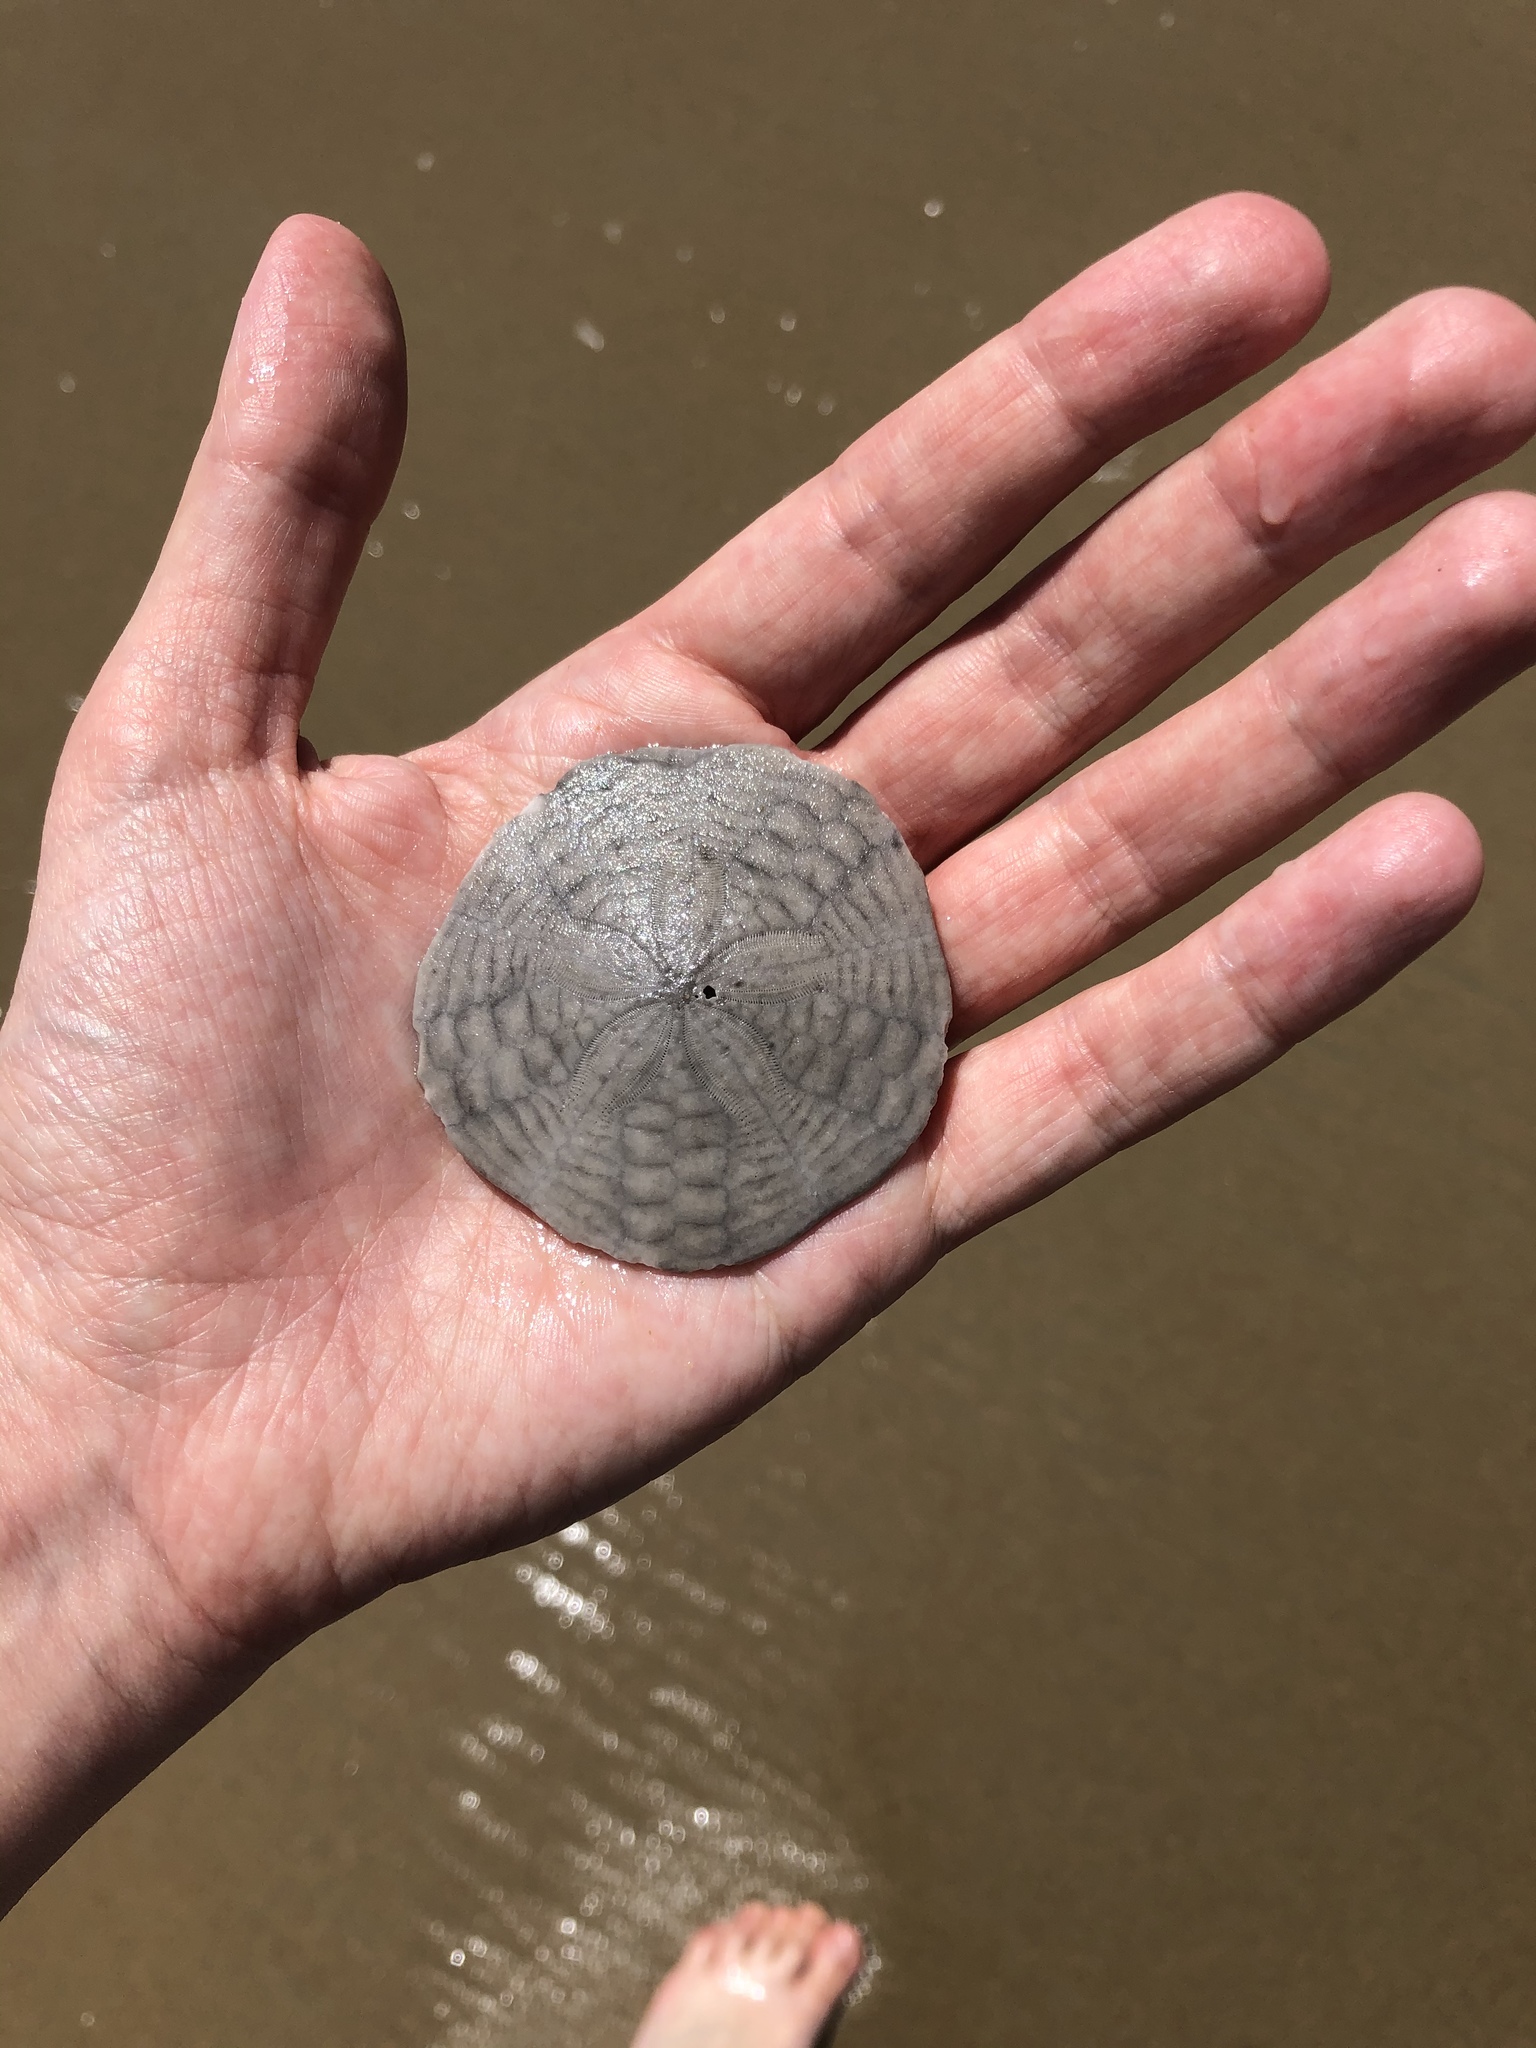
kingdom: Animalia
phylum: Echinodermata
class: Echinoidea
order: Echinolampadacea
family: Echinarachniidae
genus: Echinarachnius
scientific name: Echinarachnius parma
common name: Common sand dollar
